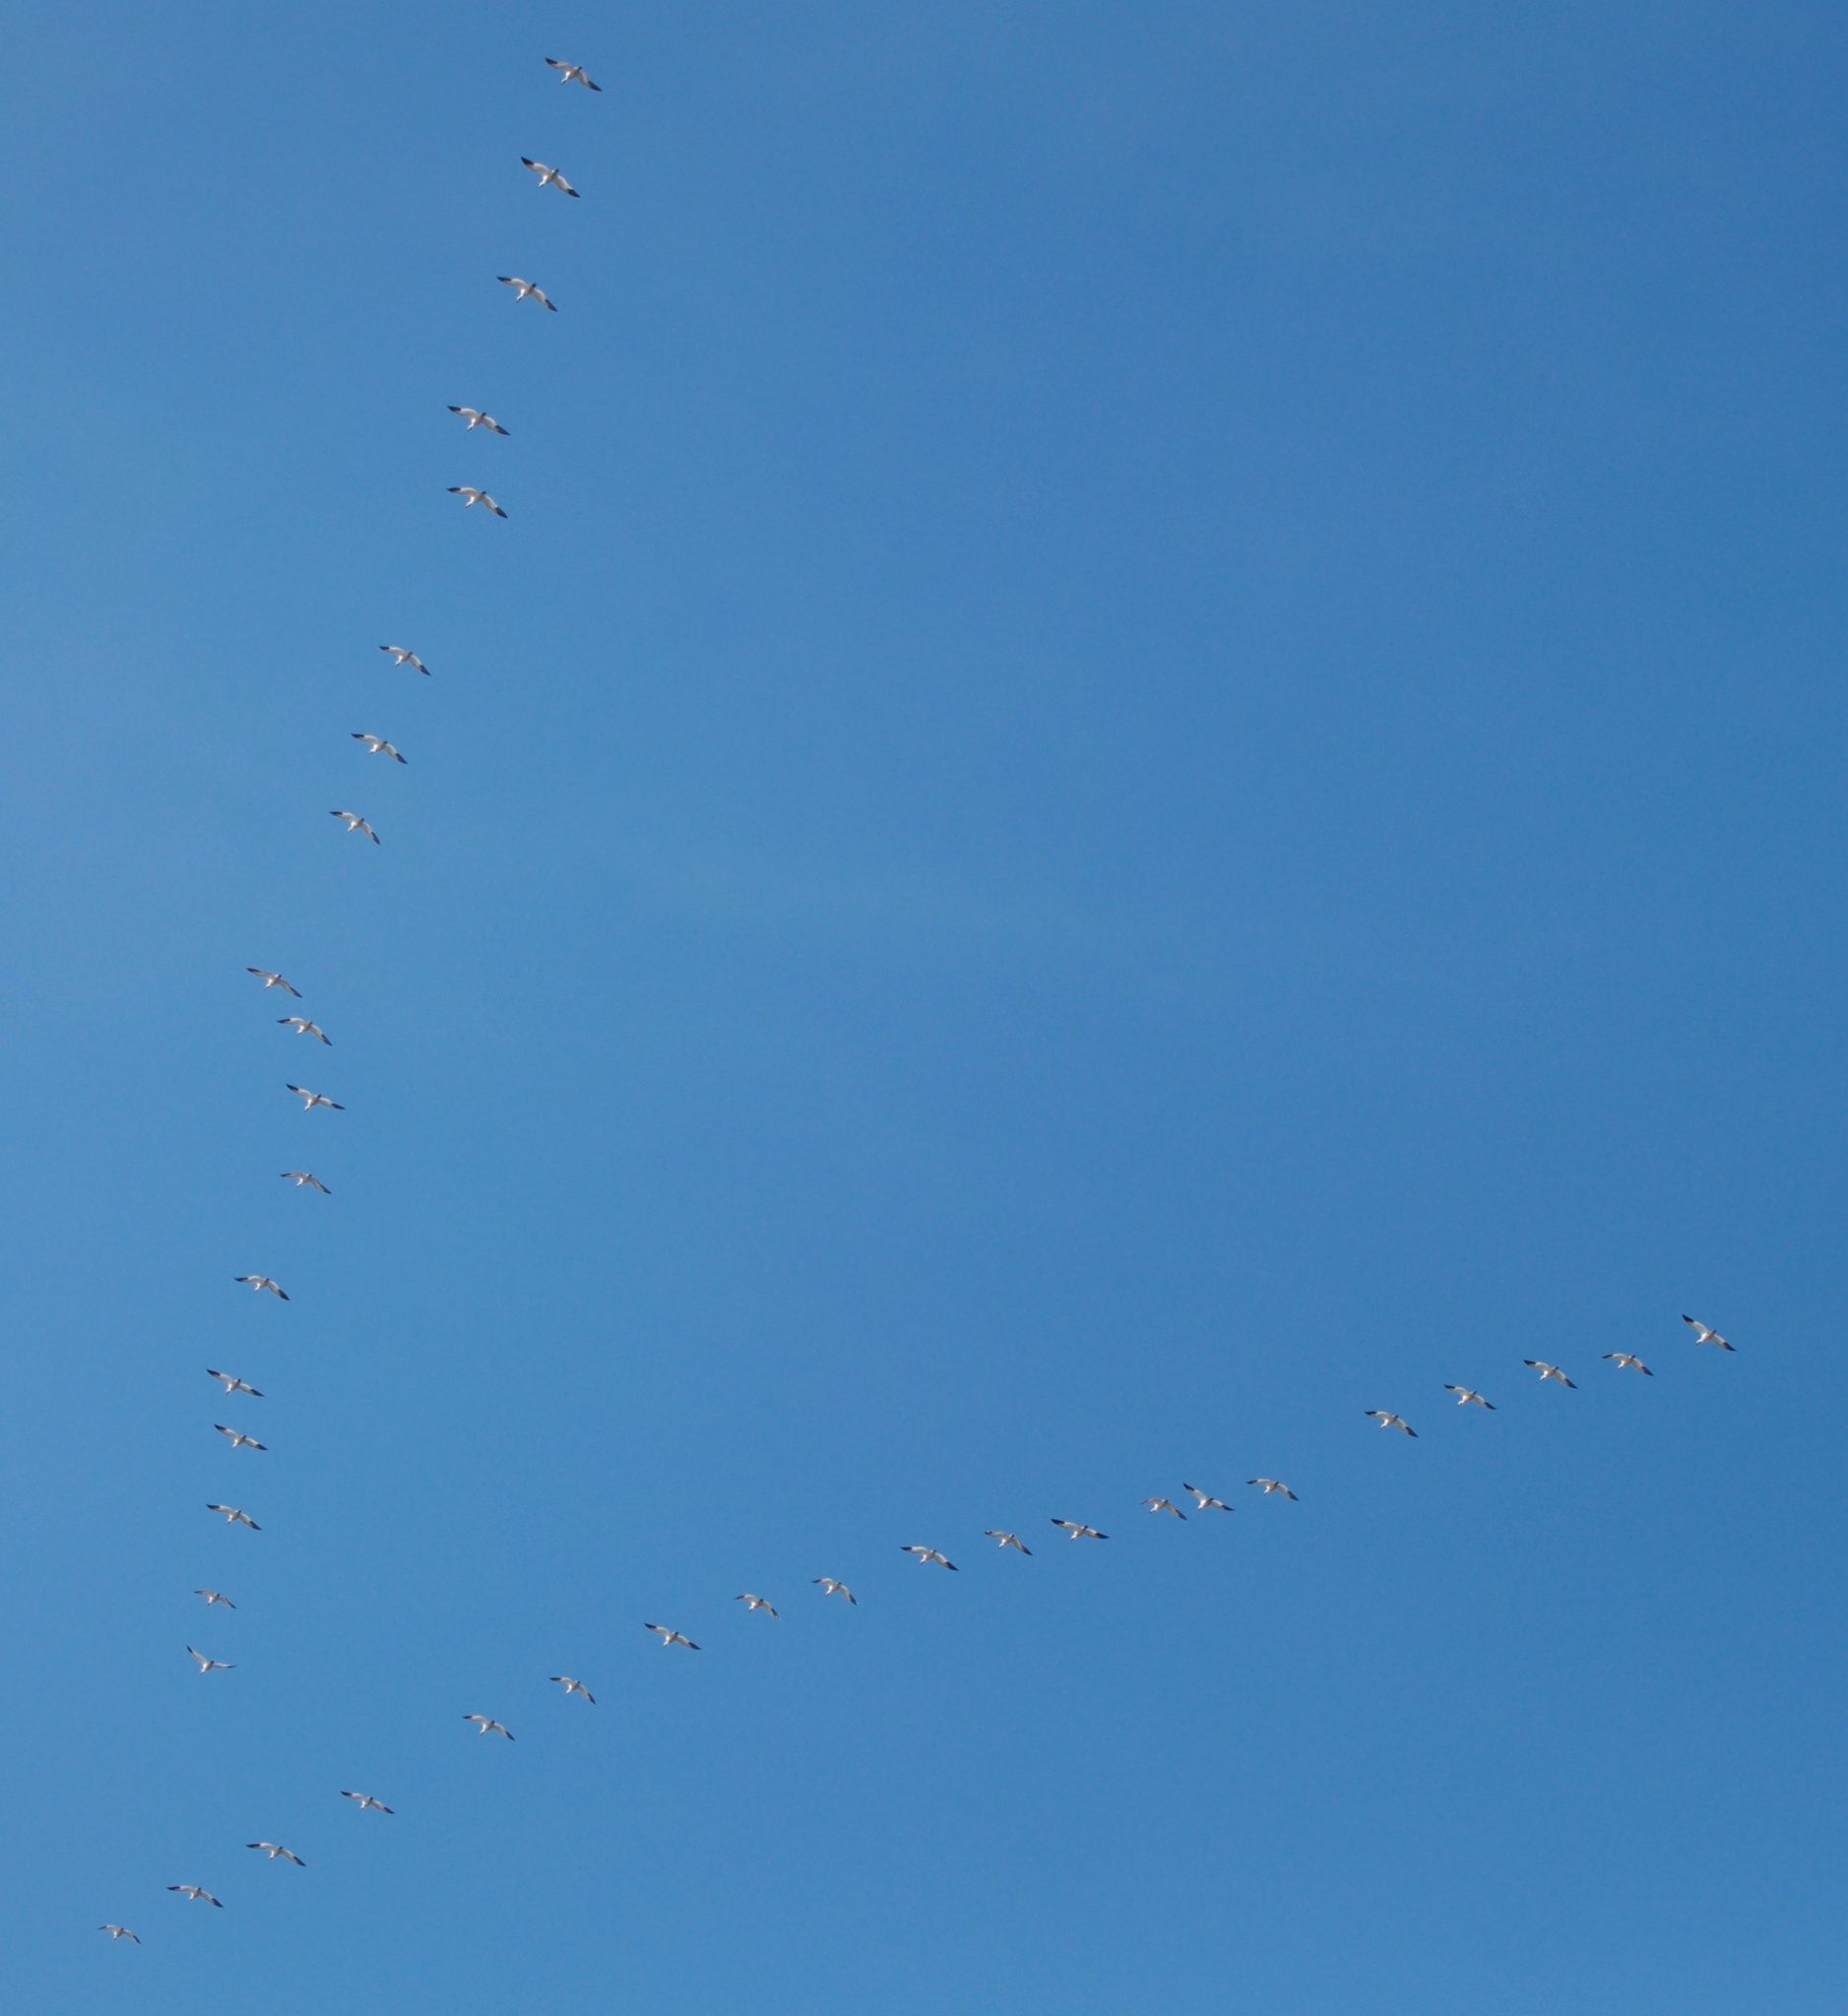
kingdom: Animalia
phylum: Chordata
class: Aves
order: Anseriformes
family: Anatidae
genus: Anser
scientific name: Anser caerulescens
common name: Snow goose
